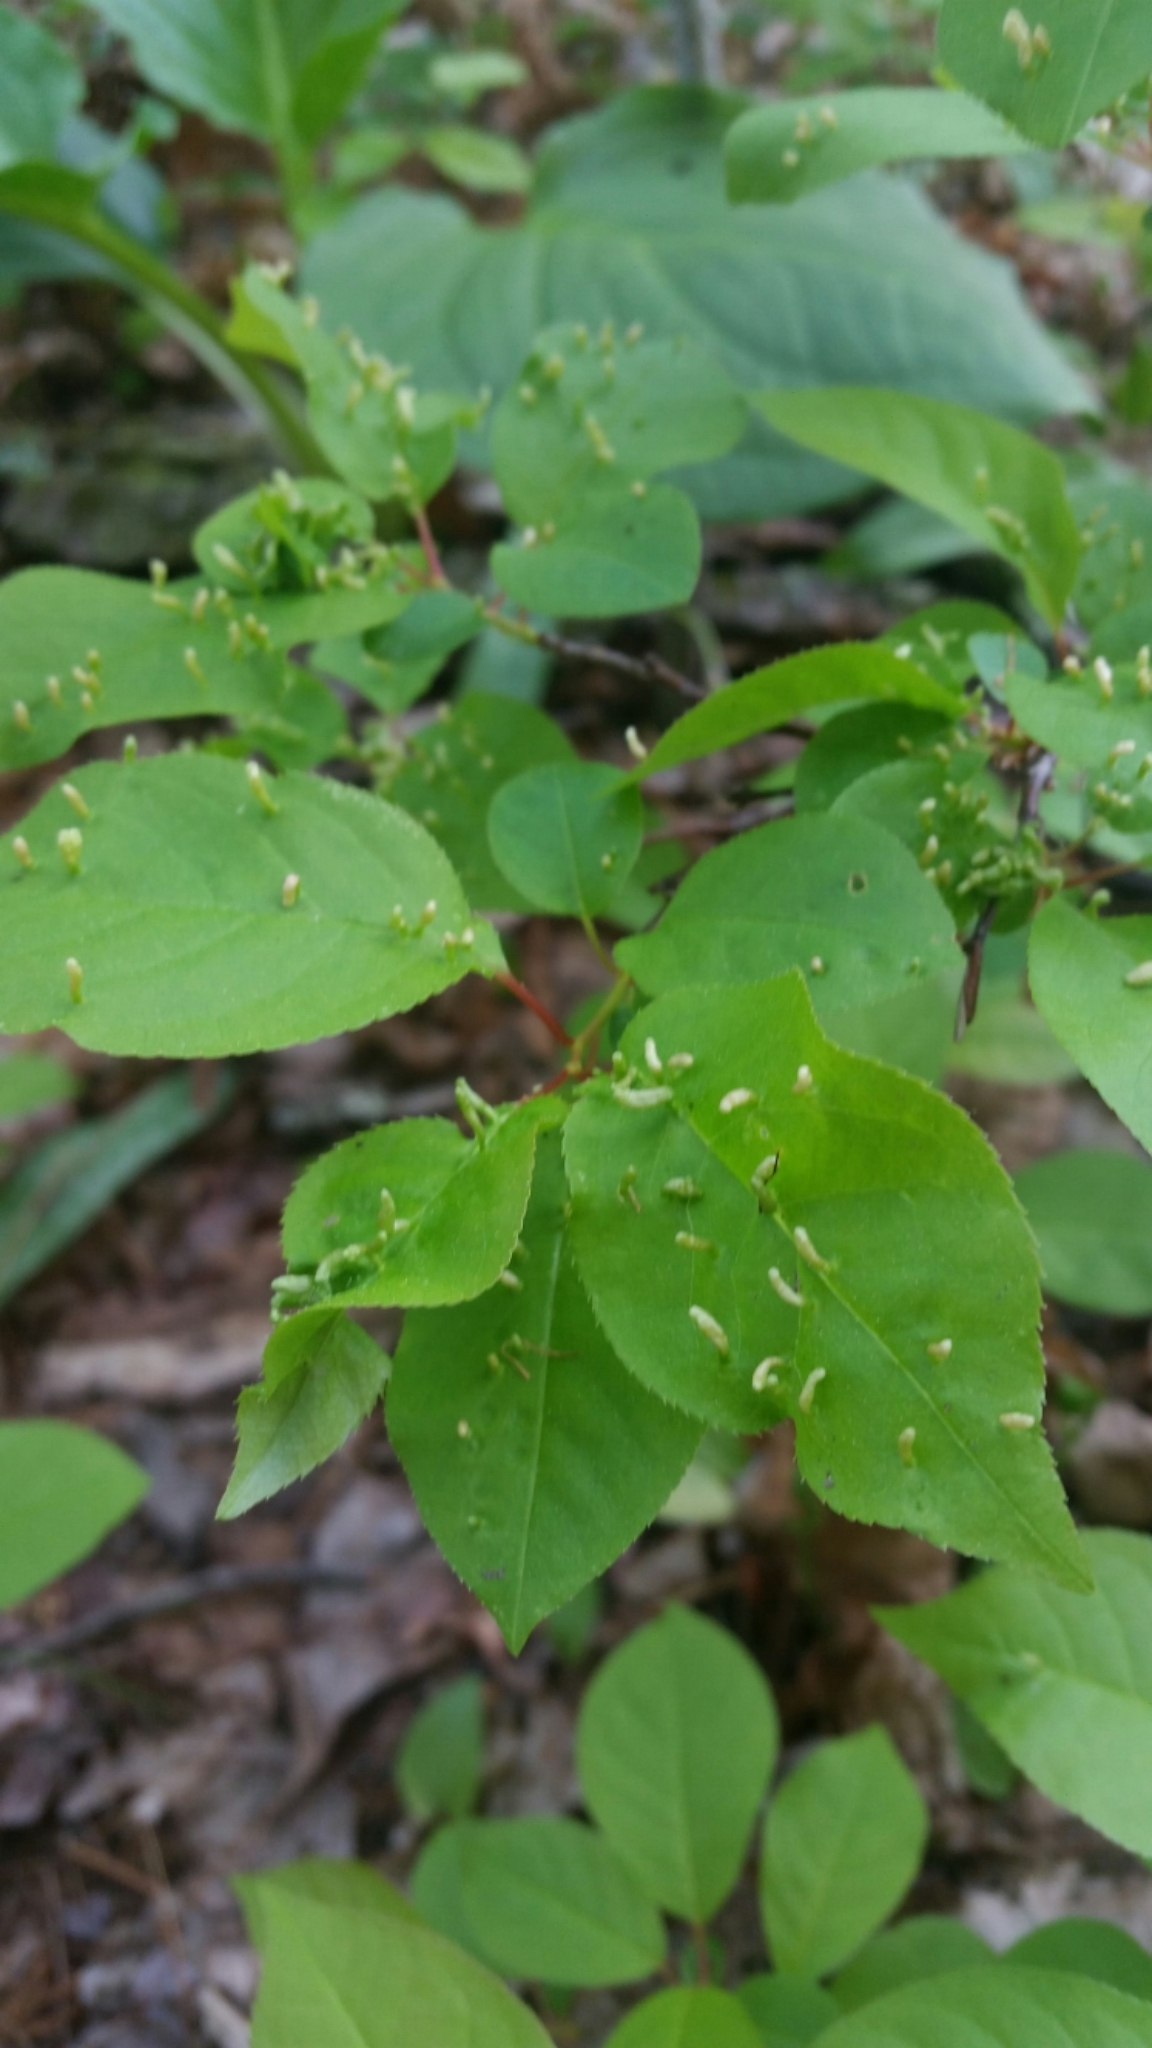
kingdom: Animalia
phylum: Arthropoda
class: Arachnida
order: Trombidiformes
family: Eriophyidae
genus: Eriophyes
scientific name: Eriophyes emarginatae
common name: Plum leaf gall mite
